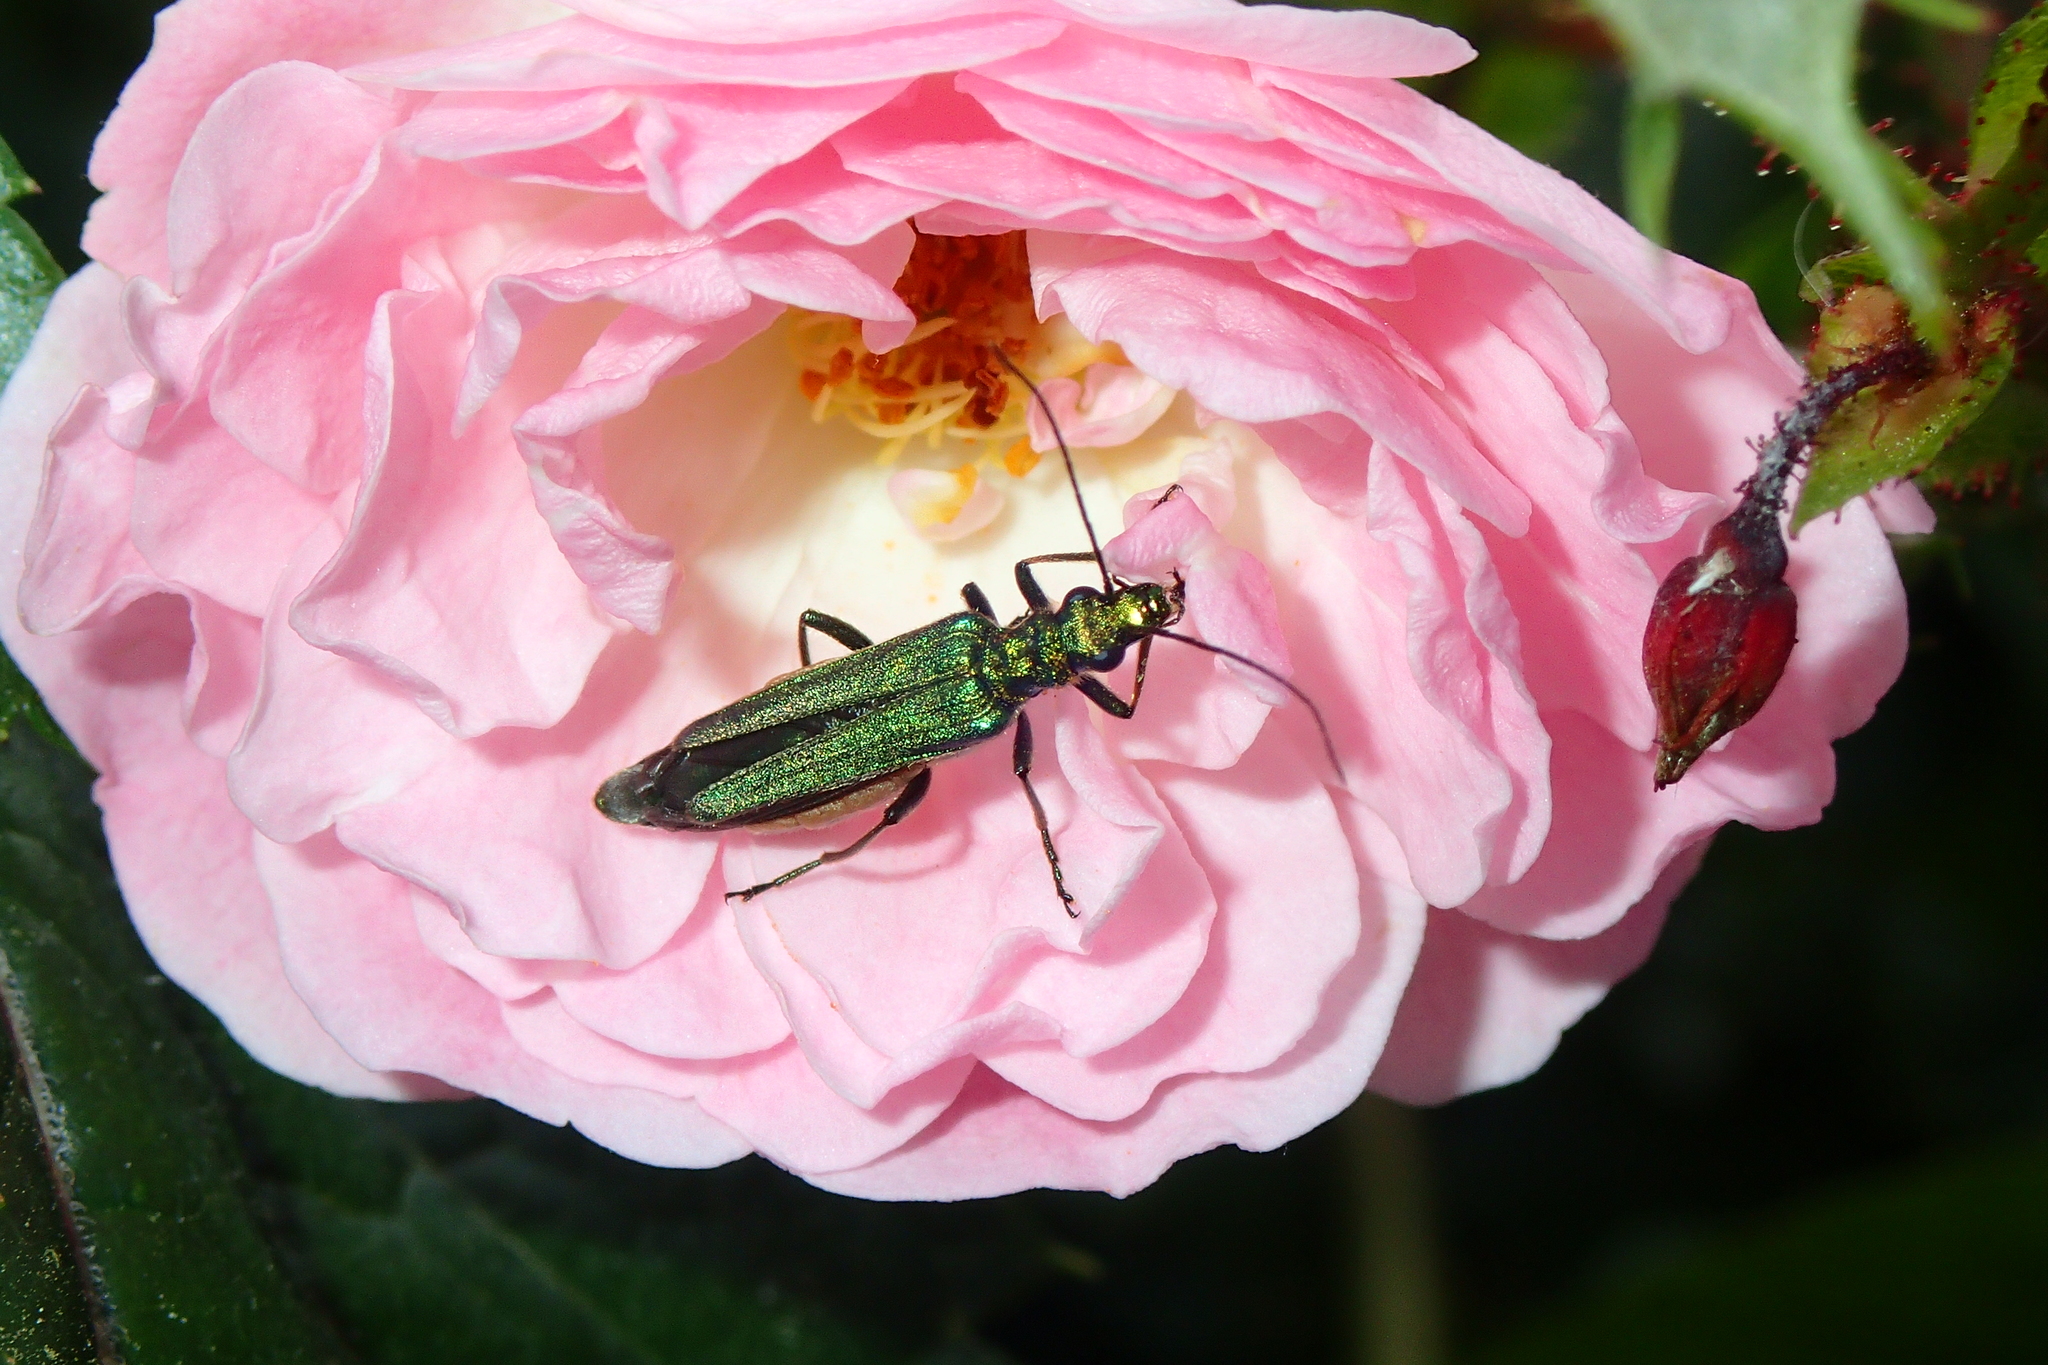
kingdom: Animalia
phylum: Arthropoda
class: Insecta
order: Coleoptera
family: Oedemeridae
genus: Oedemera
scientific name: Oedemera nobilis
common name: Swollen-thighed beetle
